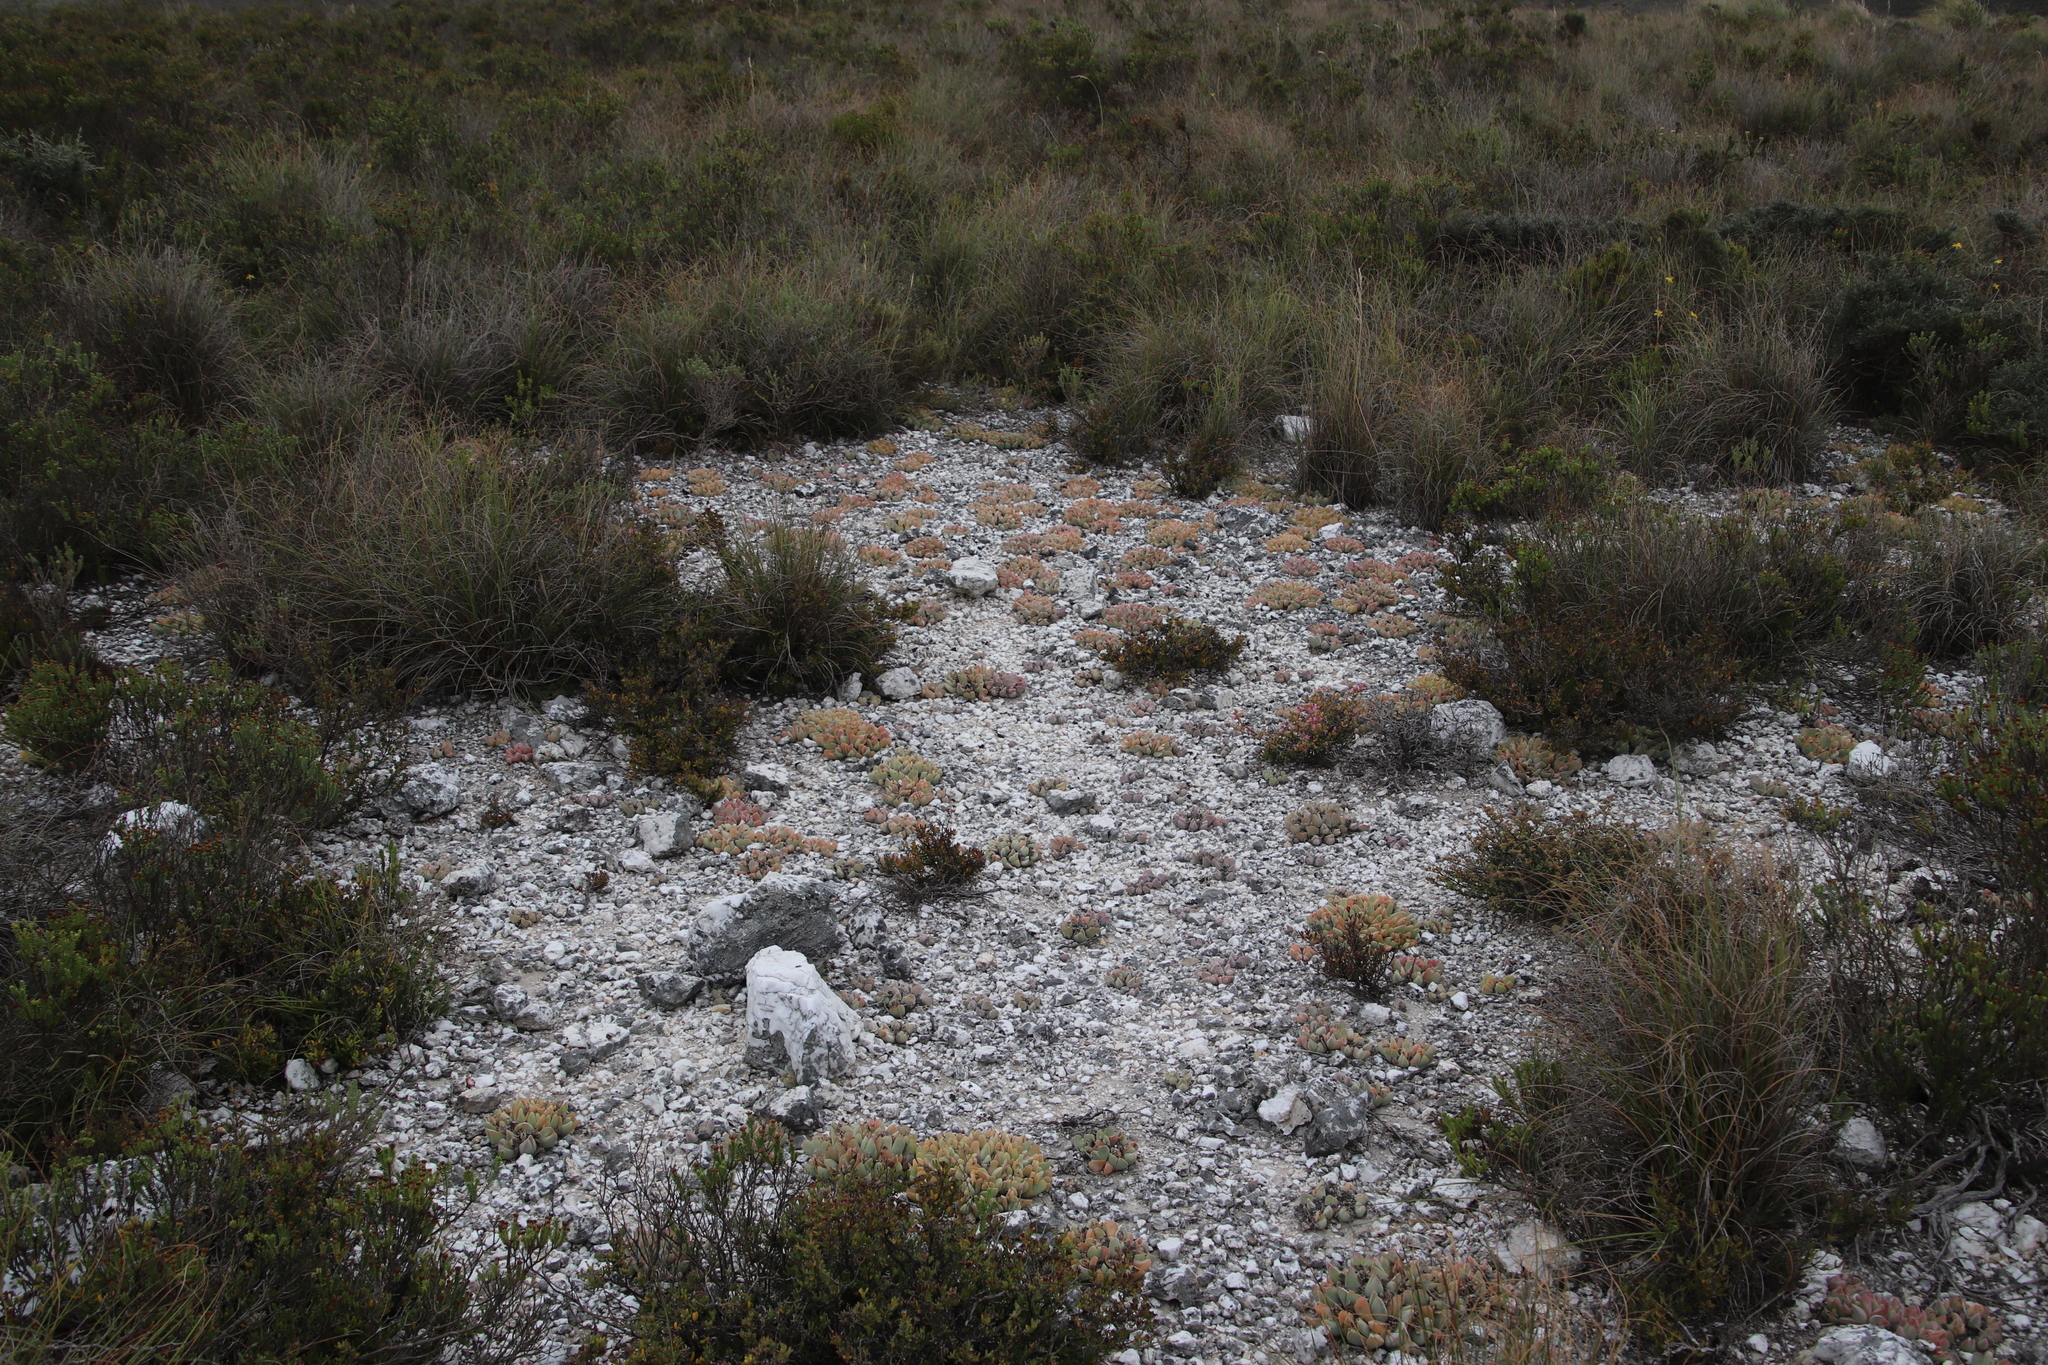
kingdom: Plantae
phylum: Tracheophyta
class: Magnoliopsida
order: Caryophyllales
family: Aizoaceae
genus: Gibbaeum
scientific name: Gibbaeum hartmannianum
